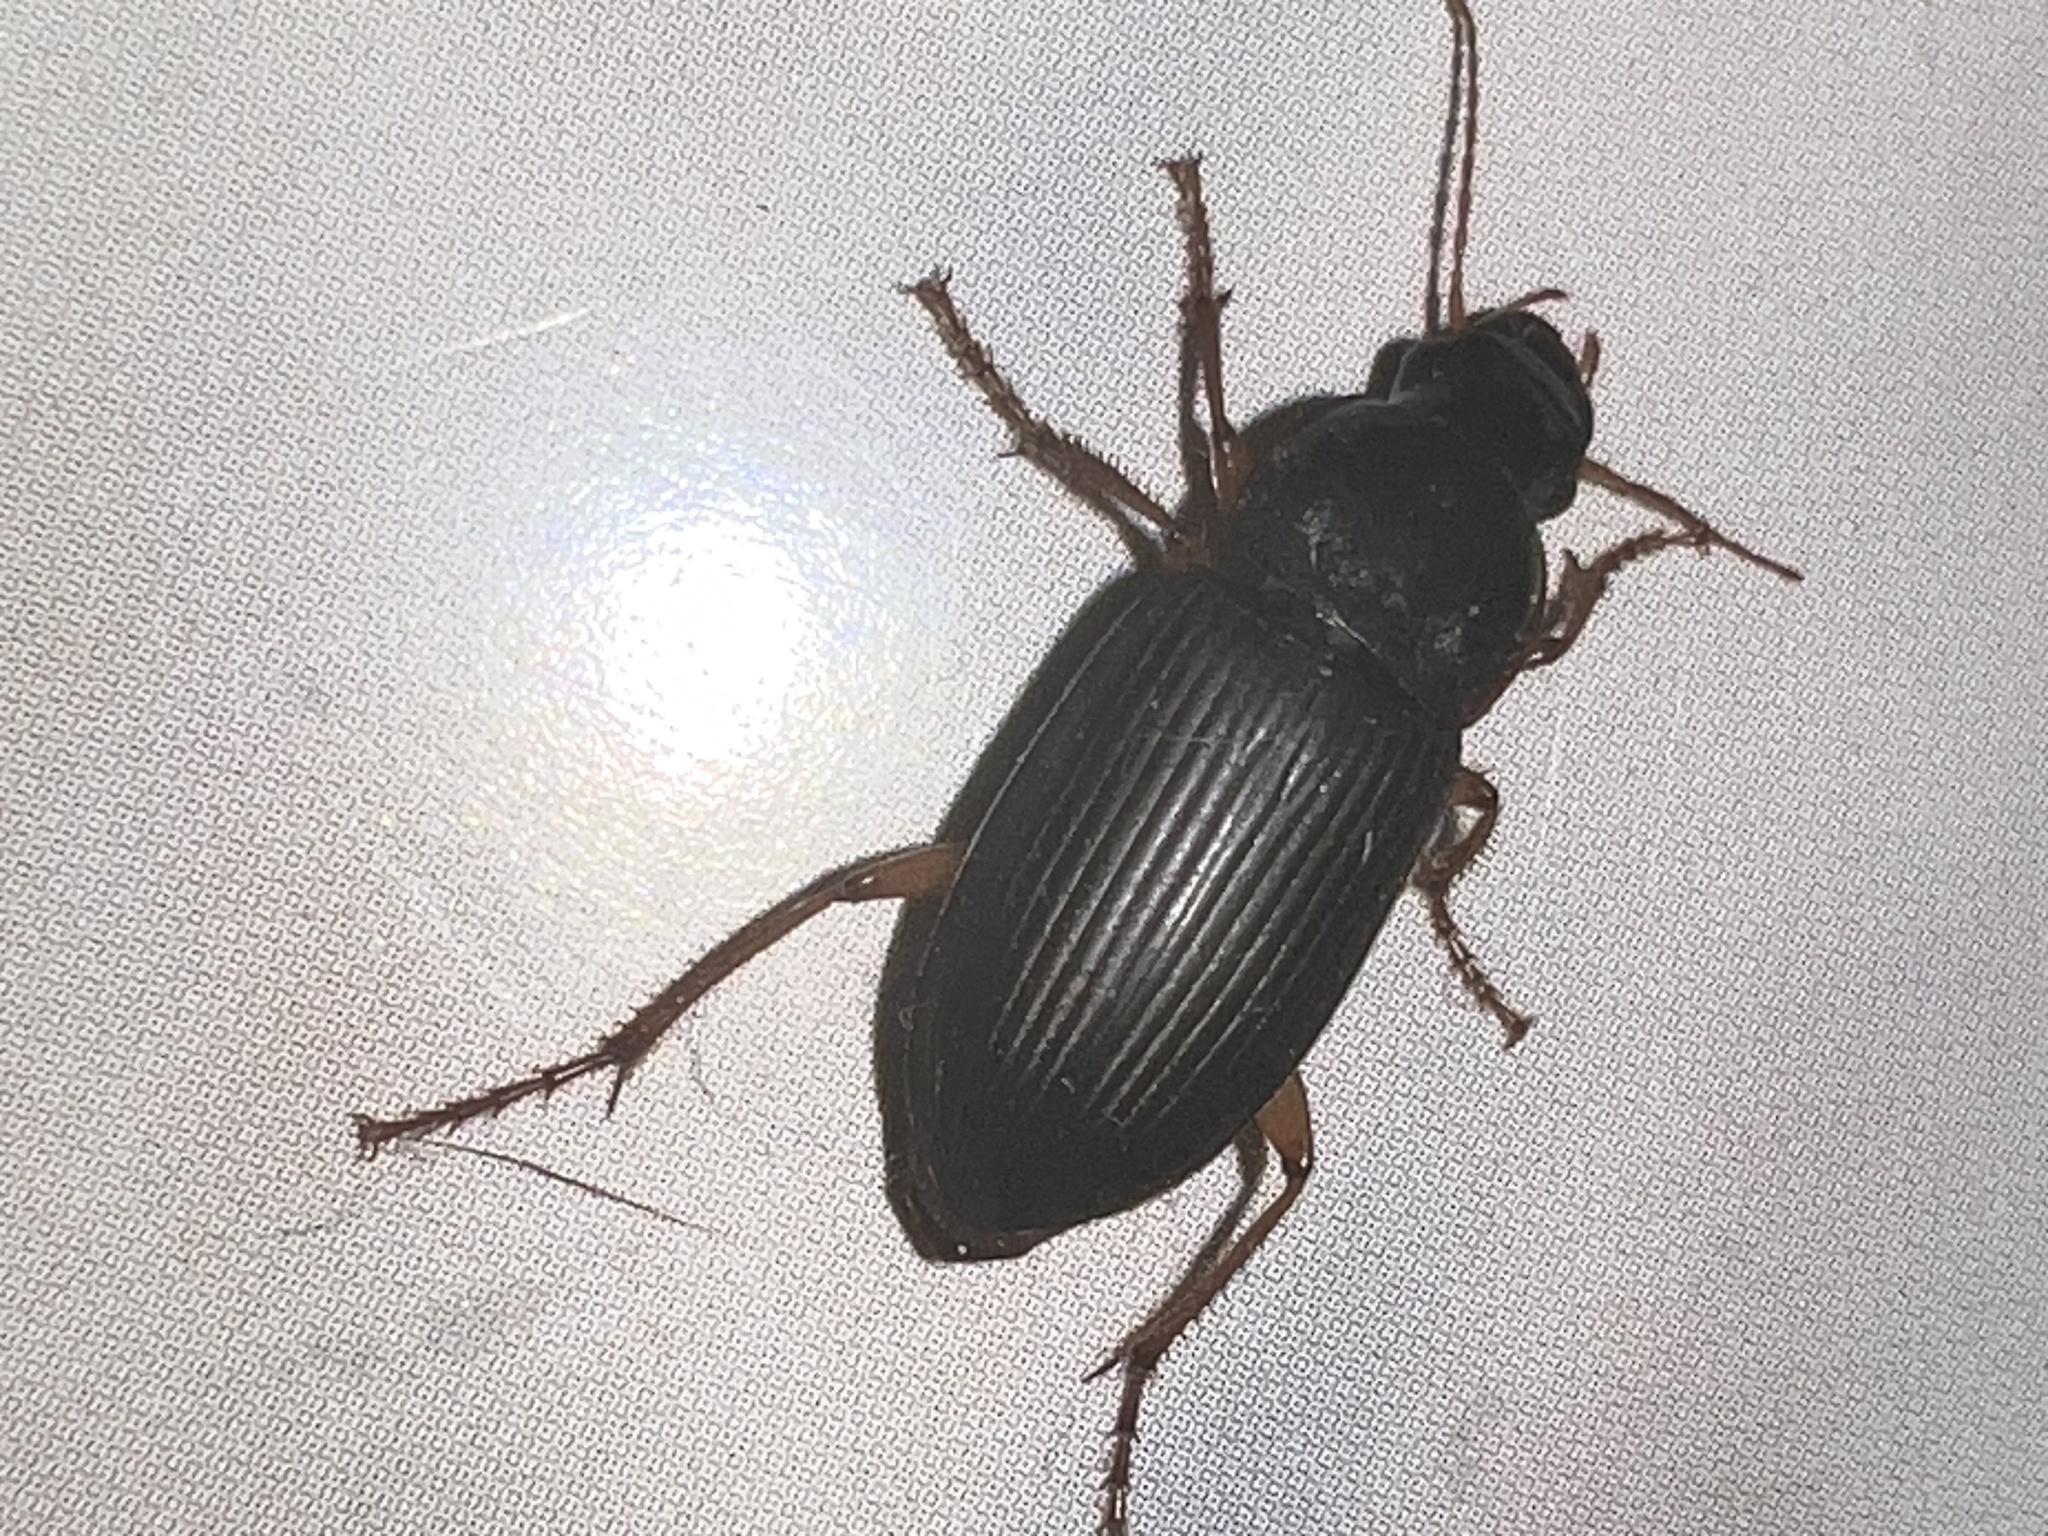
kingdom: Animalia
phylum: Arthropoda
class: Insecta
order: Coleoptera
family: Carabidae
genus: Harpalus
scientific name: Harpalus pensylvanicus
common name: Pennsylvania dingy ground beetle
